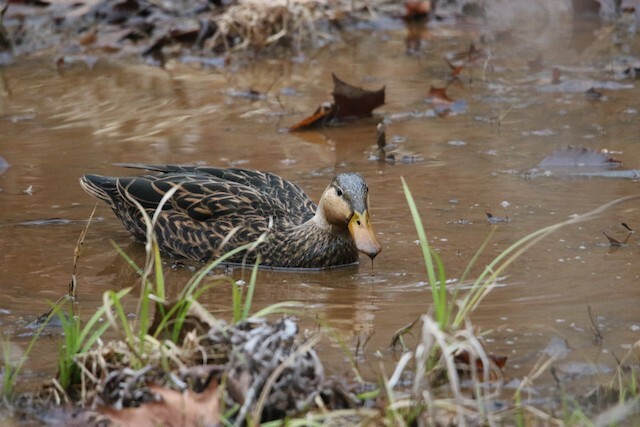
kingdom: Animalia
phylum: Chordata
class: Aves
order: Anseriformes
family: Anatidae
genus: Anas
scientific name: Anas fulvigula
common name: Mottled duck
